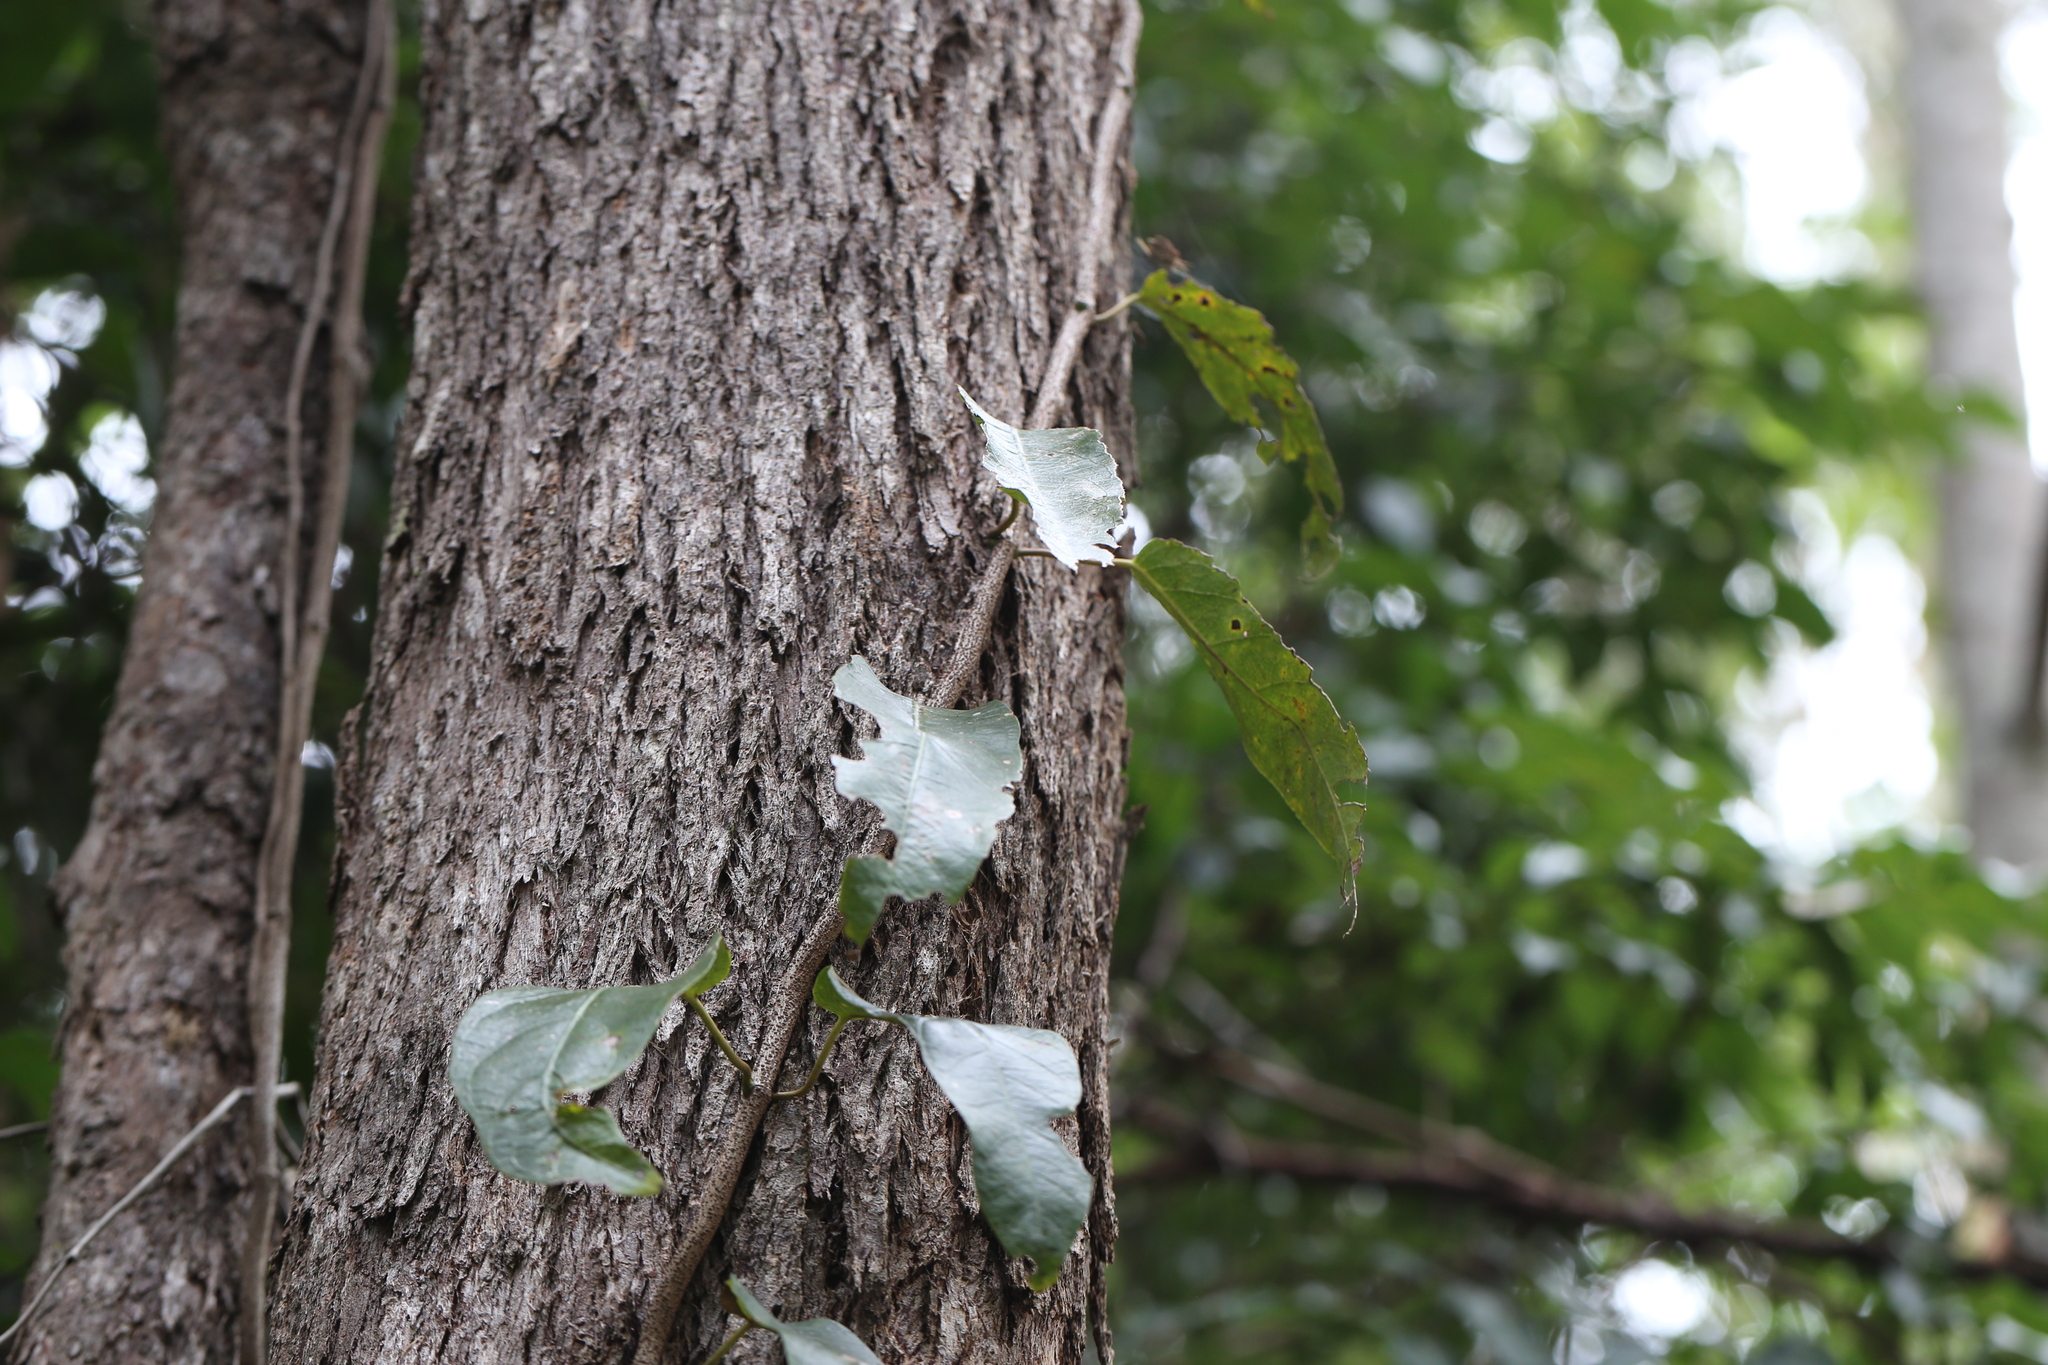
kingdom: Plantae
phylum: Tracheophyta
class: Magnoliopsida
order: Gentianales
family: Apocynaceae
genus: Parsonsia
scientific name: Parsonsia straminea
